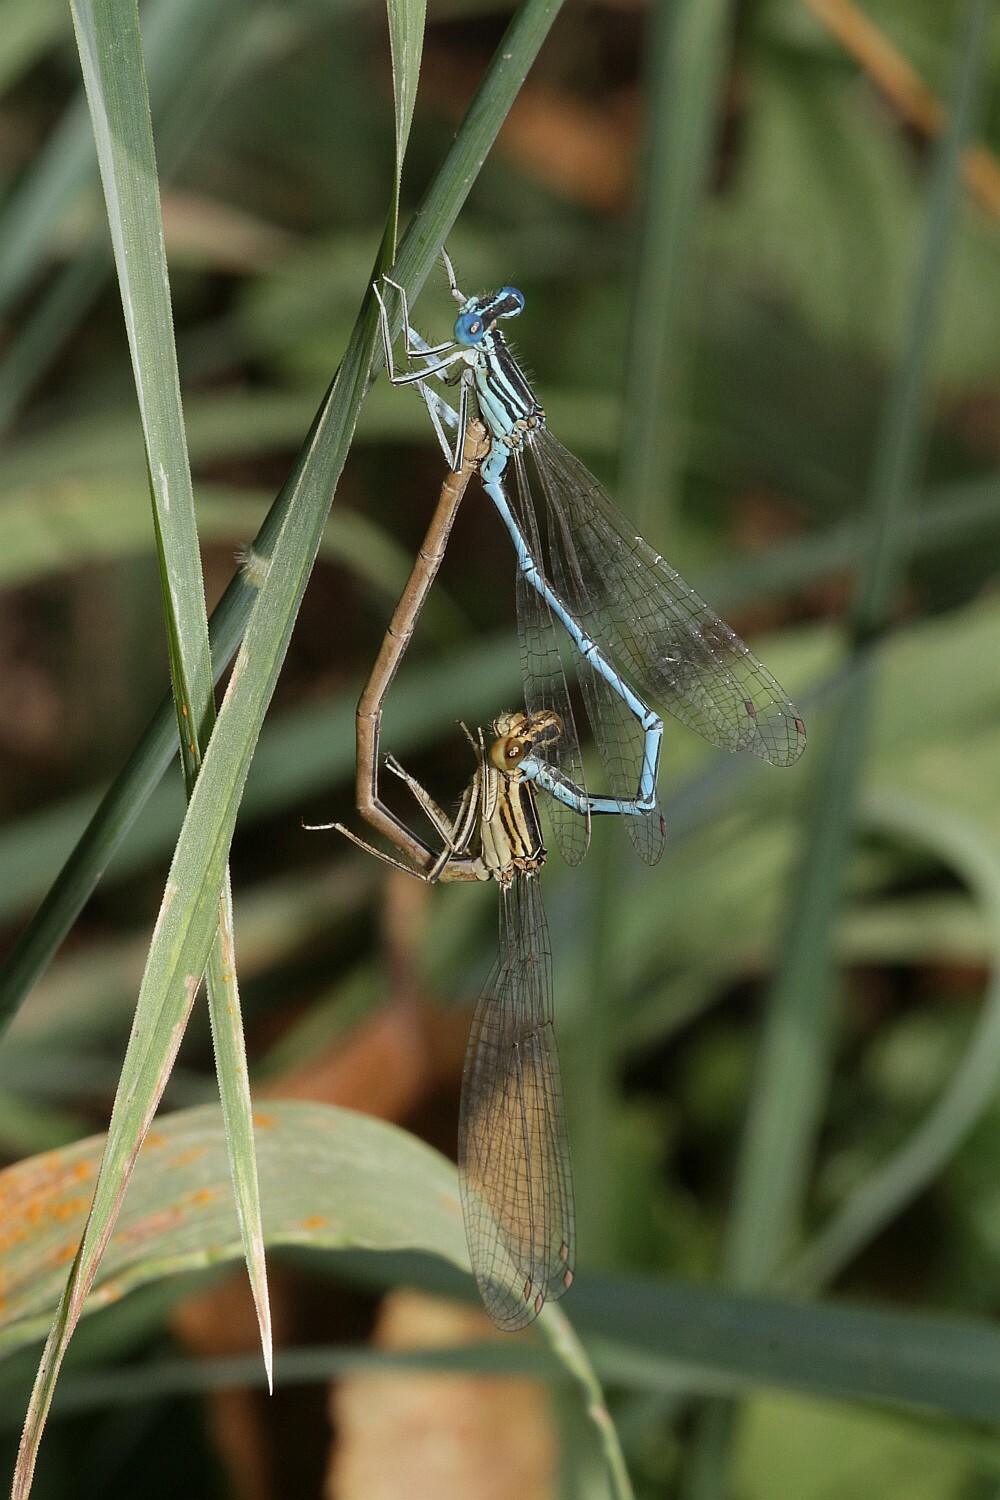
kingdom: Animalia
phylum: Arthropoda
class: Insecta
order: Odonata
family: Platycnemididae
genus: Platycnemis
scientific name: Platycnemis pennipes
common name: White-legged damselfly
